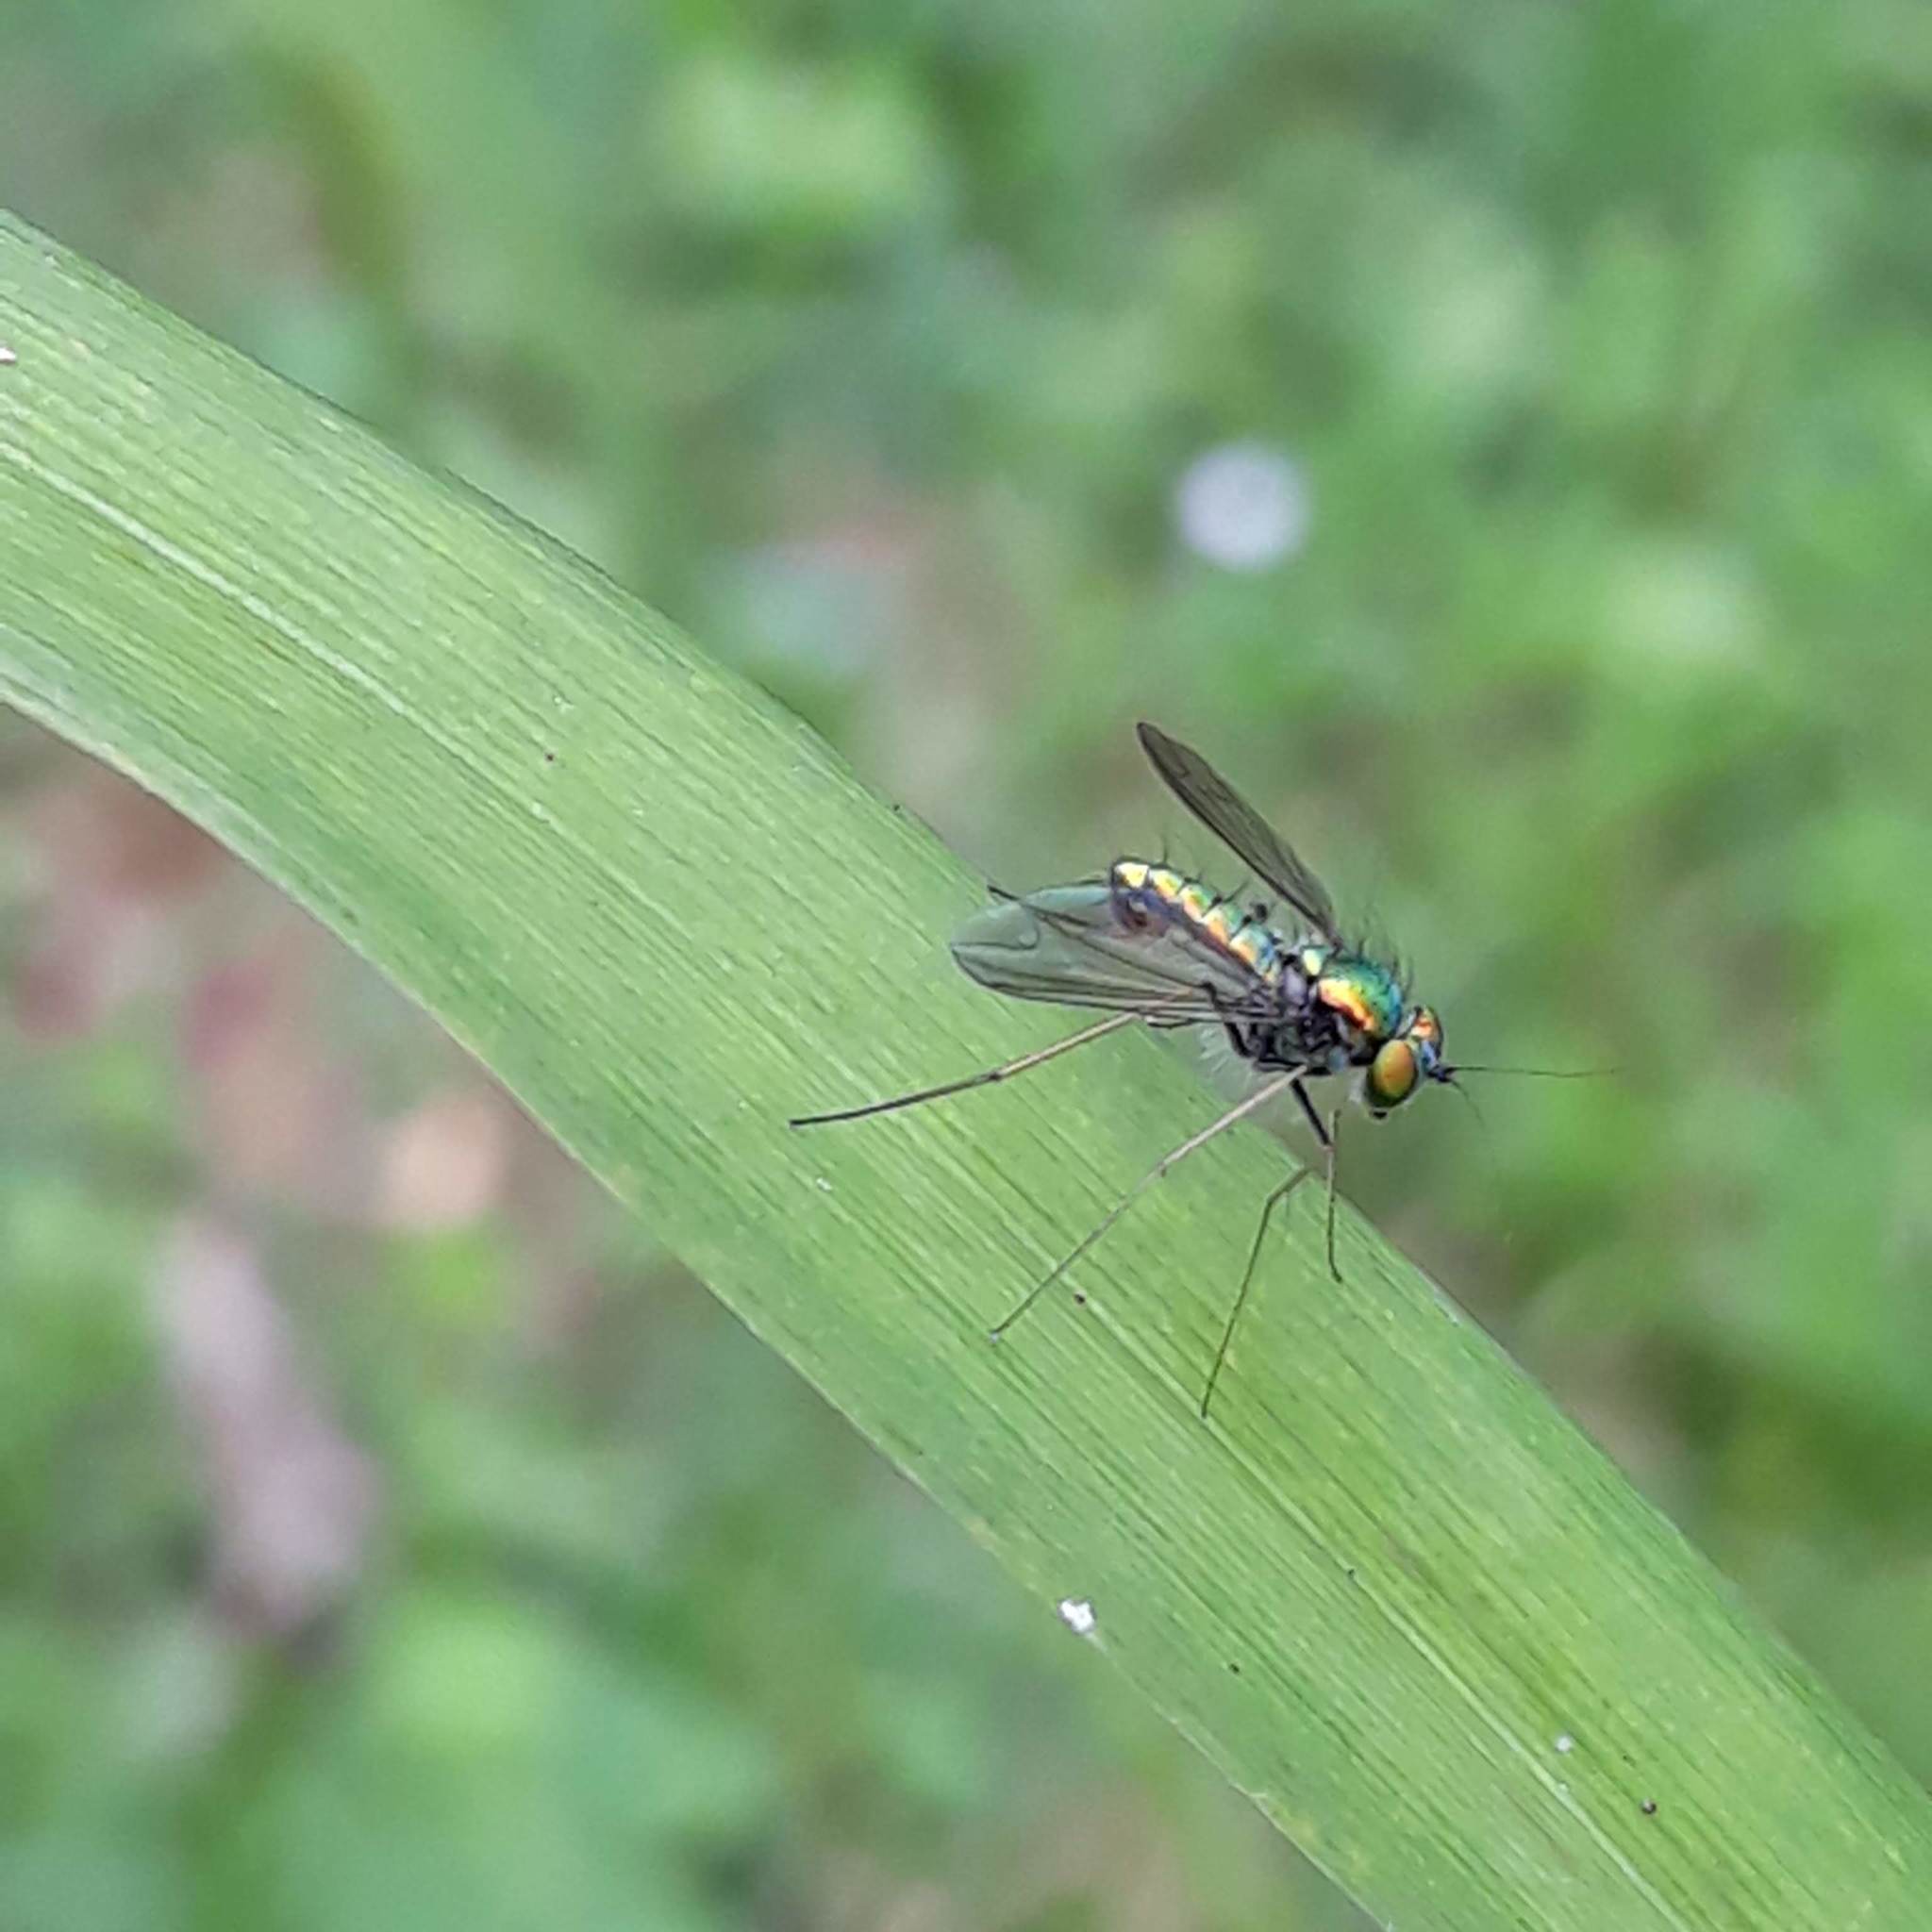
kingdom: Animalia
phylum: Arthropoda
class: Insecta
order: Diptera
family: Dolichopodidae
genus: Condylostylus
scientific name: Condylostylus comatus
